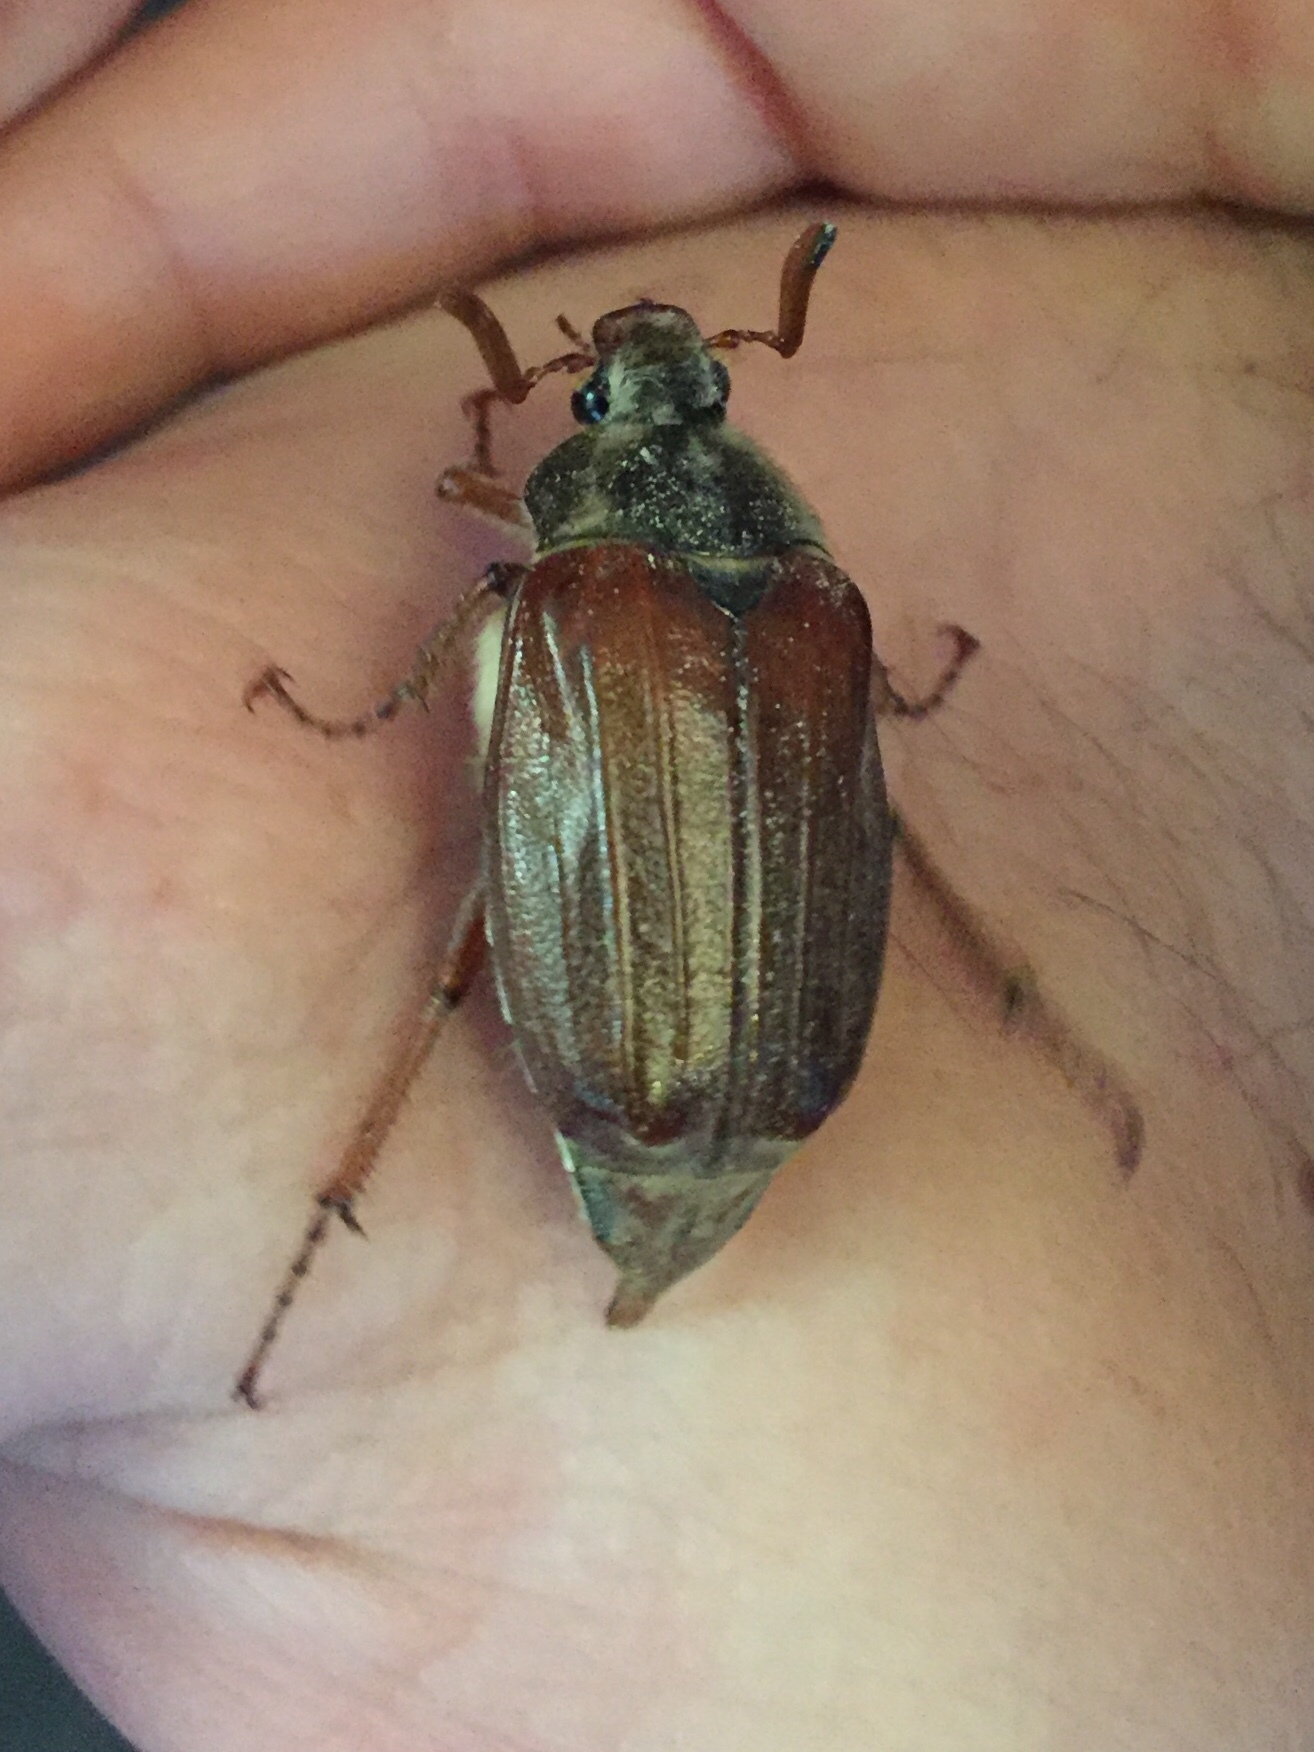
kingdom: Animalia
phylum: Arthropoda
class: Insecta
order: Coleoptera
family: Scarabaeidae
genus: Melolontha
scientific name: Melolontha melolontha
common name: Cockchafer maybeetle
